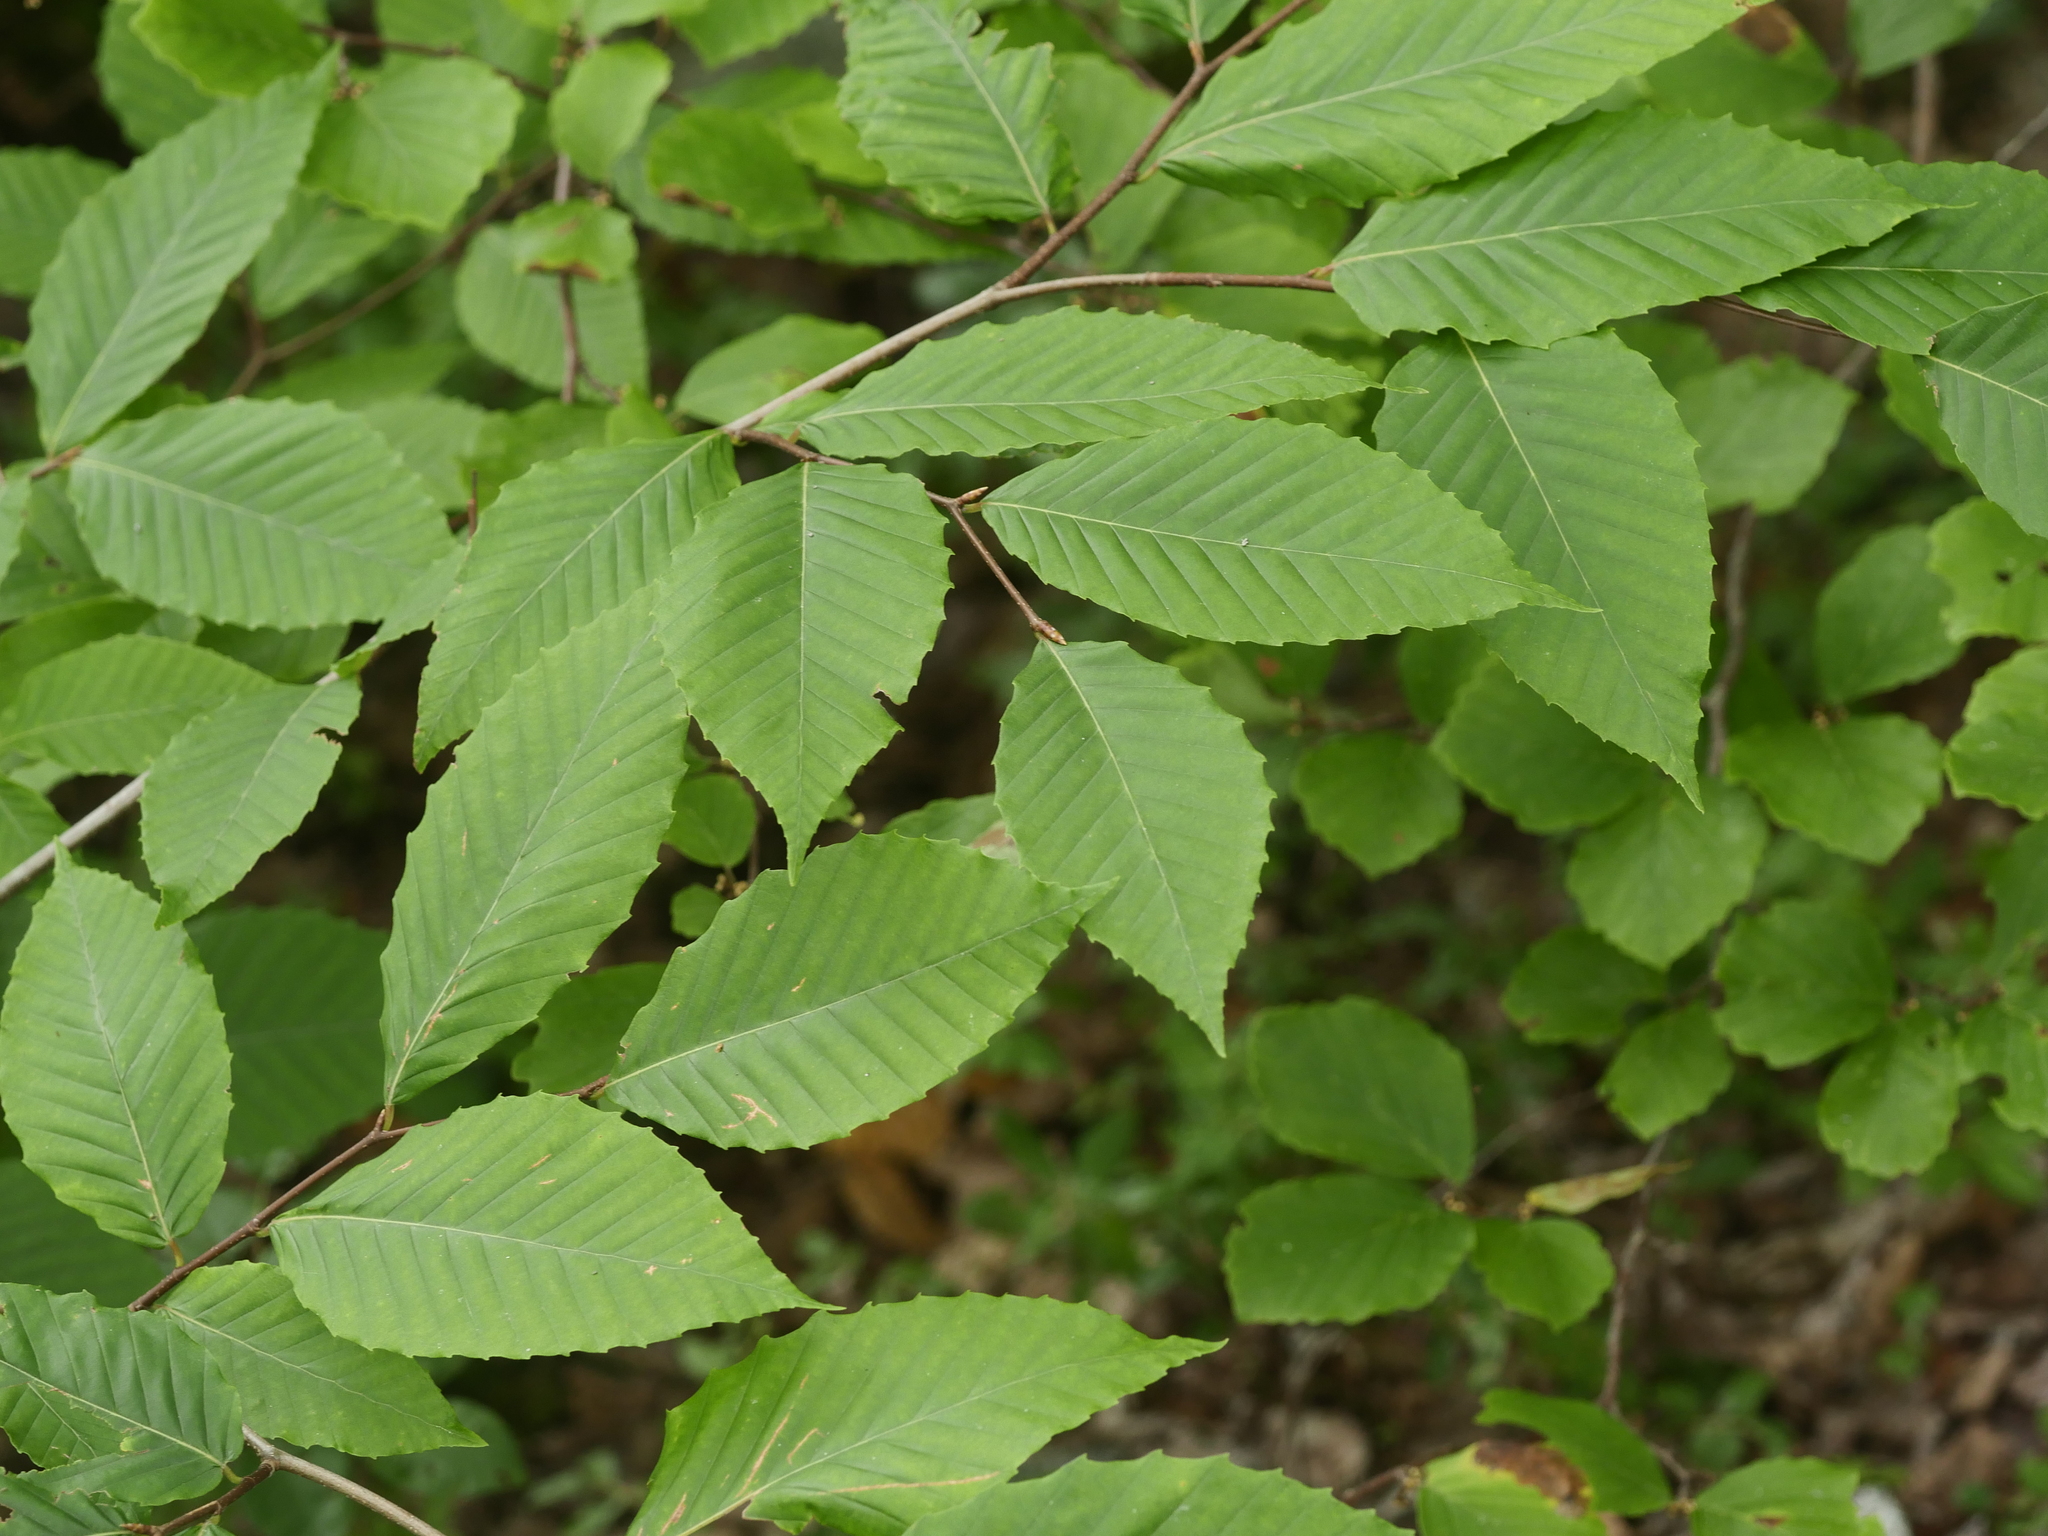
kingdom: Plantae
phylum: Tracheophyta
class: Magnoliopsida
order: Fagales
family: Fagaceae
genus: Fagus
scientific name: Fagus grandifolia
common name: American beech
